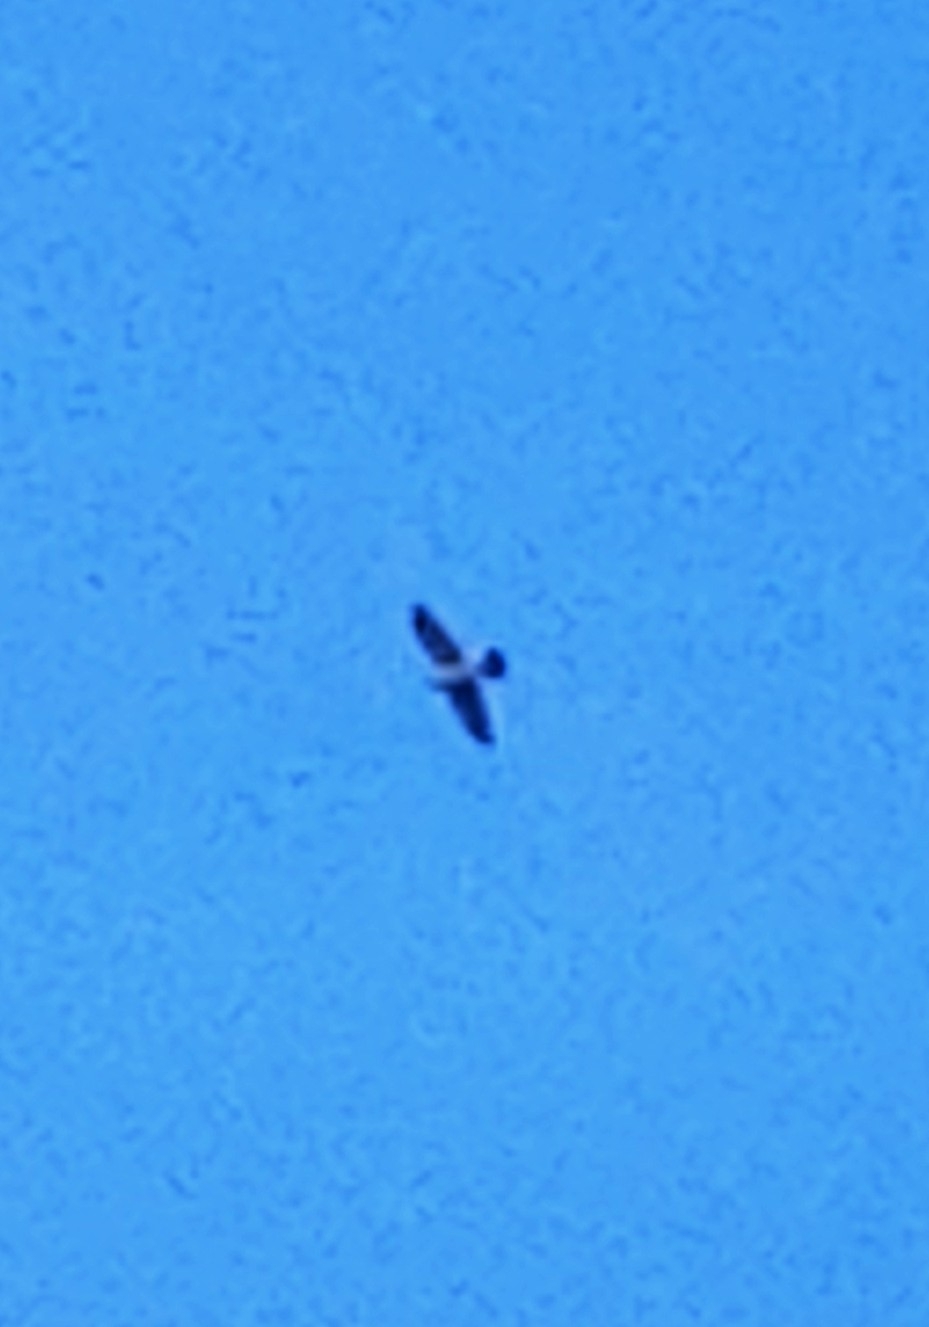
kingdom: Animalia
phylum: Chordata
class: Aves
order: Accipitriformes
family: Accipitridae
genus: Accipiter
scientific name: Accipiter cooperii
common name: Cooper's hawk
